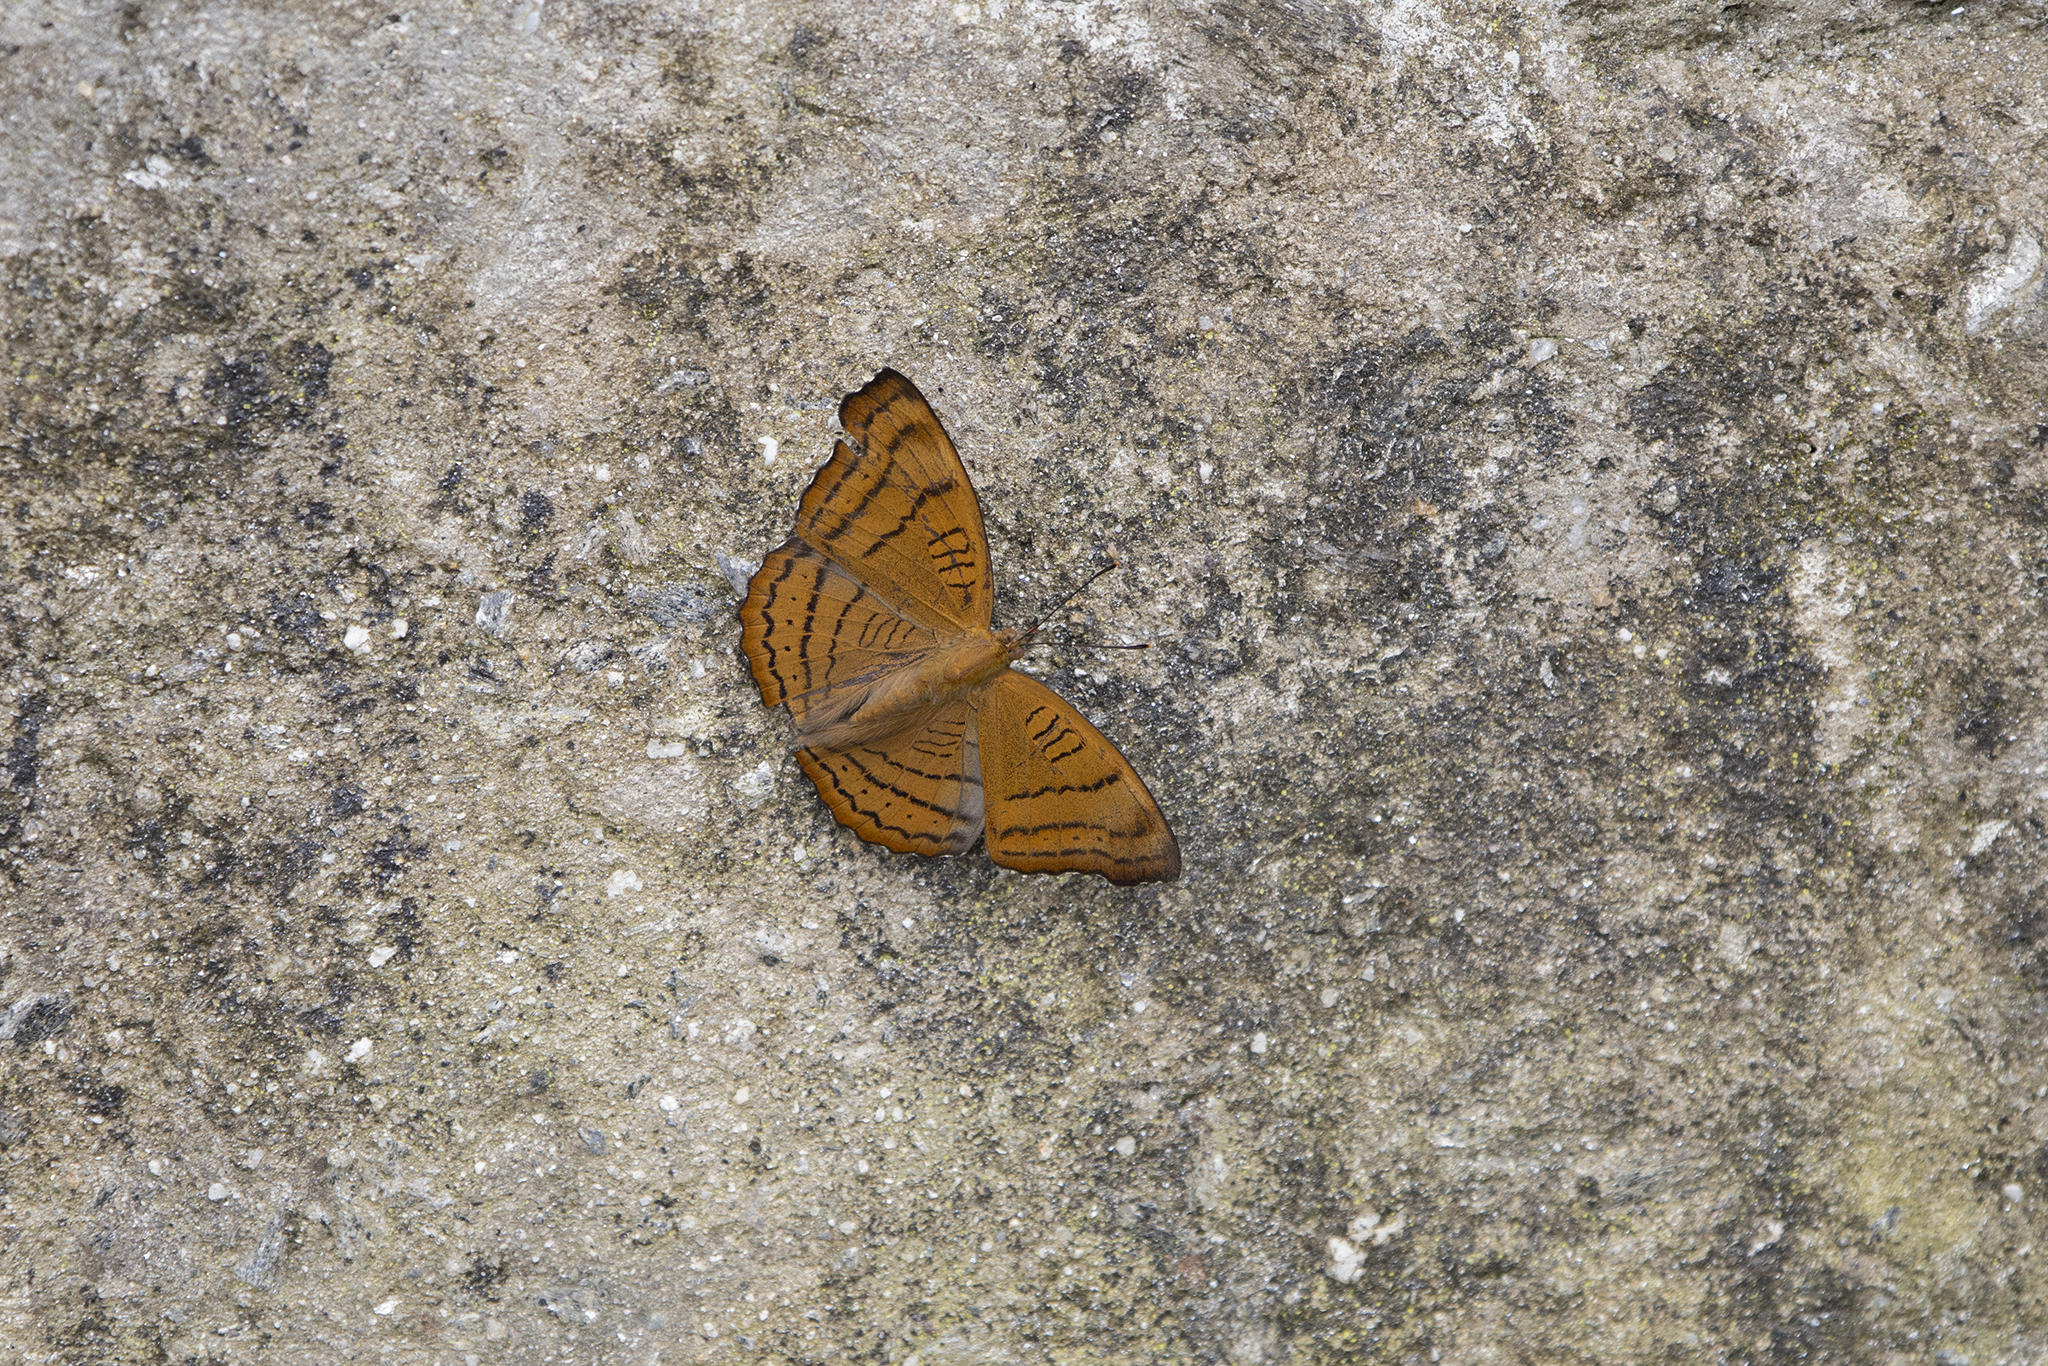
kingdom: Animalia
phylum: Arthropoda
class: Insecta
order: Lepidoptera
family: Nymphalidae
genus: Pseudergolis
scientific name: Pseudergolis wedah
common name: Tabby
